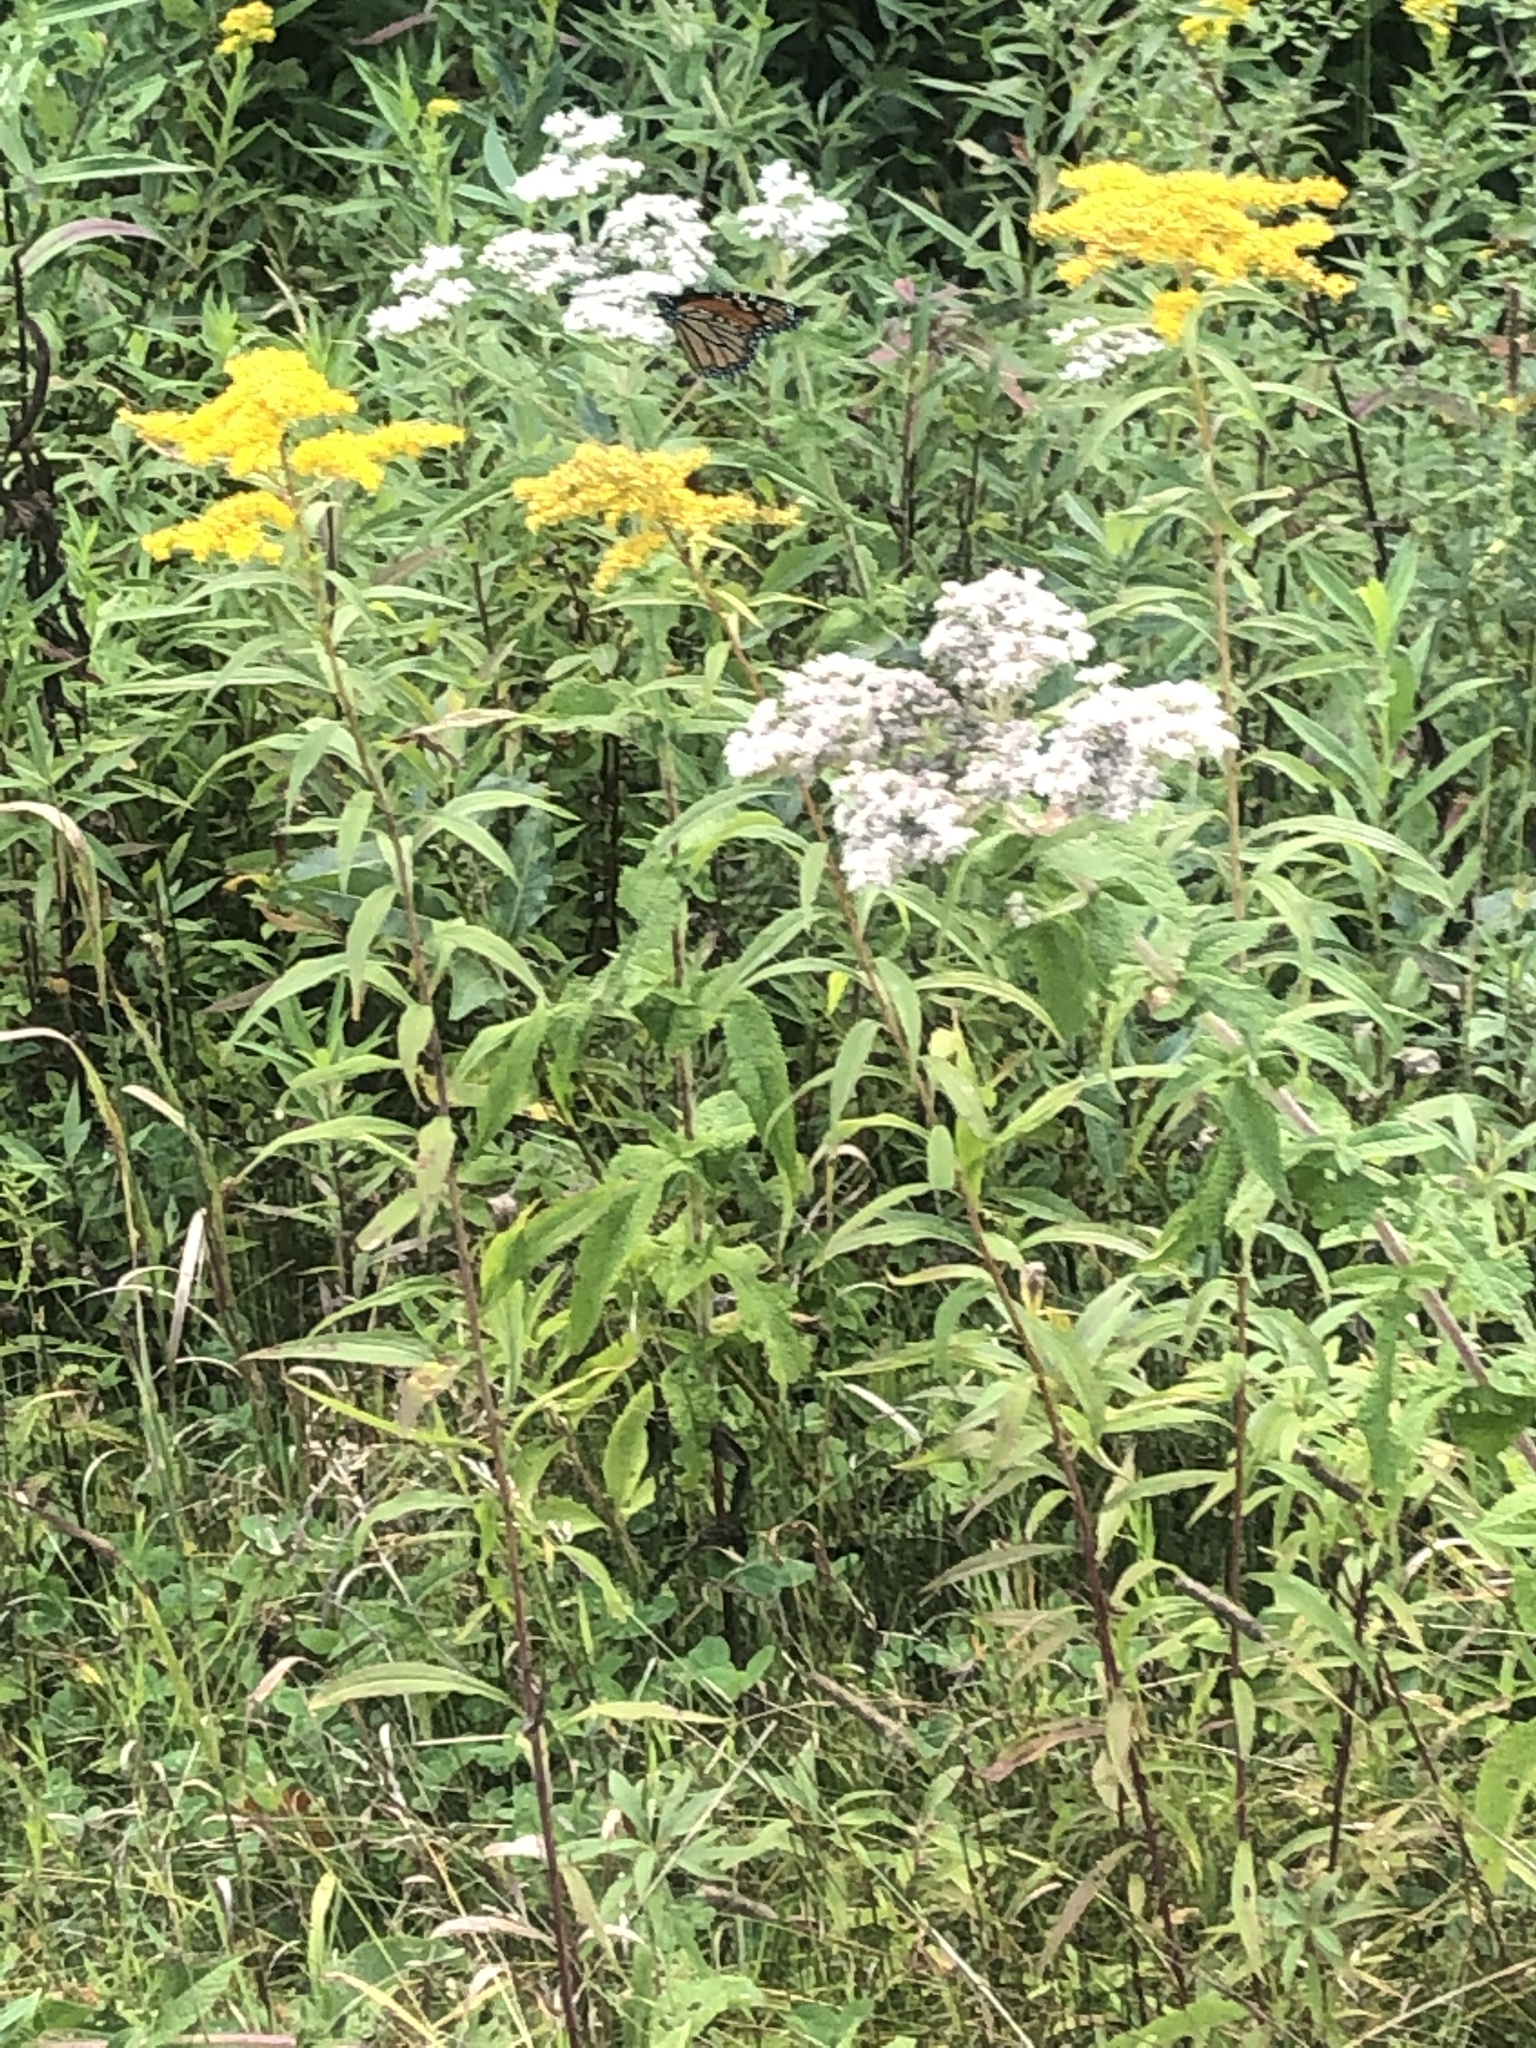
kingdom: Animalia
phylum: Arthropoda
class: Insecta
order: Lepidoptera
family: Nymphalidae
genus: Danaus
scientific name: Danaus plexippus
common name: Monarch
